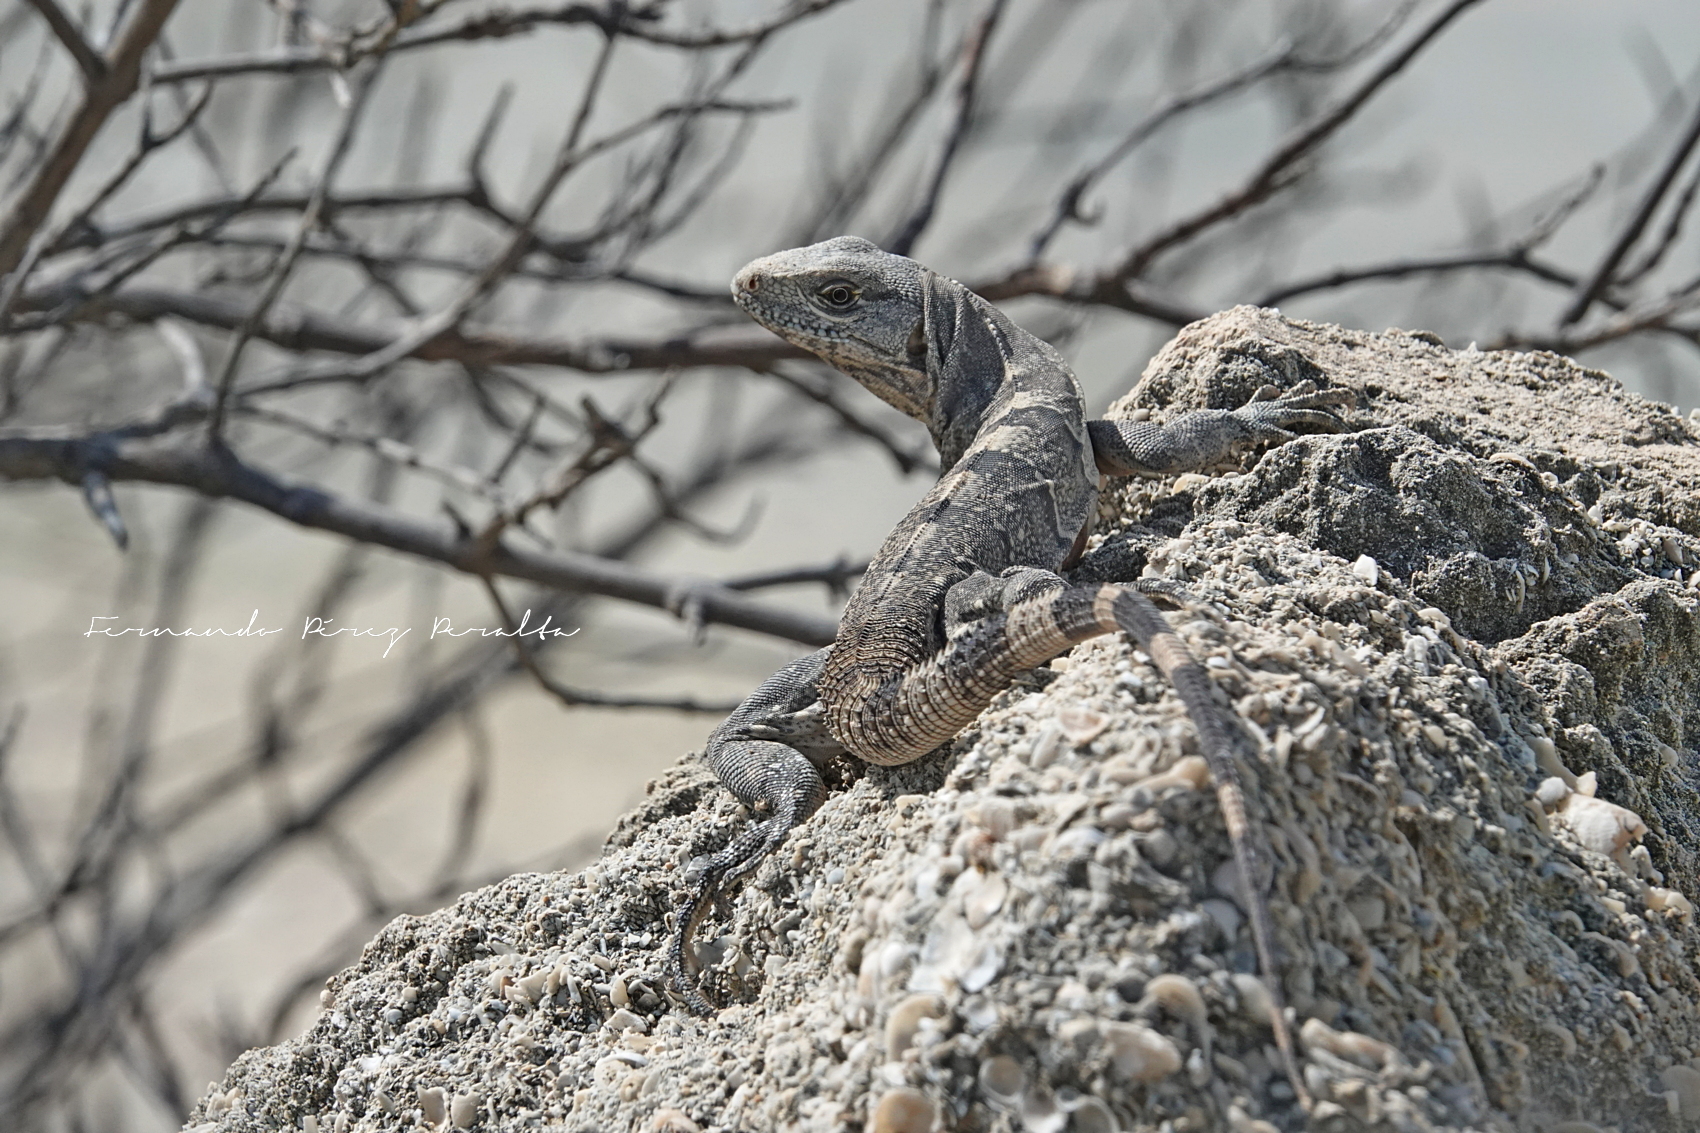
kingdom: Animalia
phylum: Chordata
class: Squamata
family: Iguanidae
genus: Ctenosaura
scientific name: Ctenosaura similis
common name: Black spiny-tailed iguana
